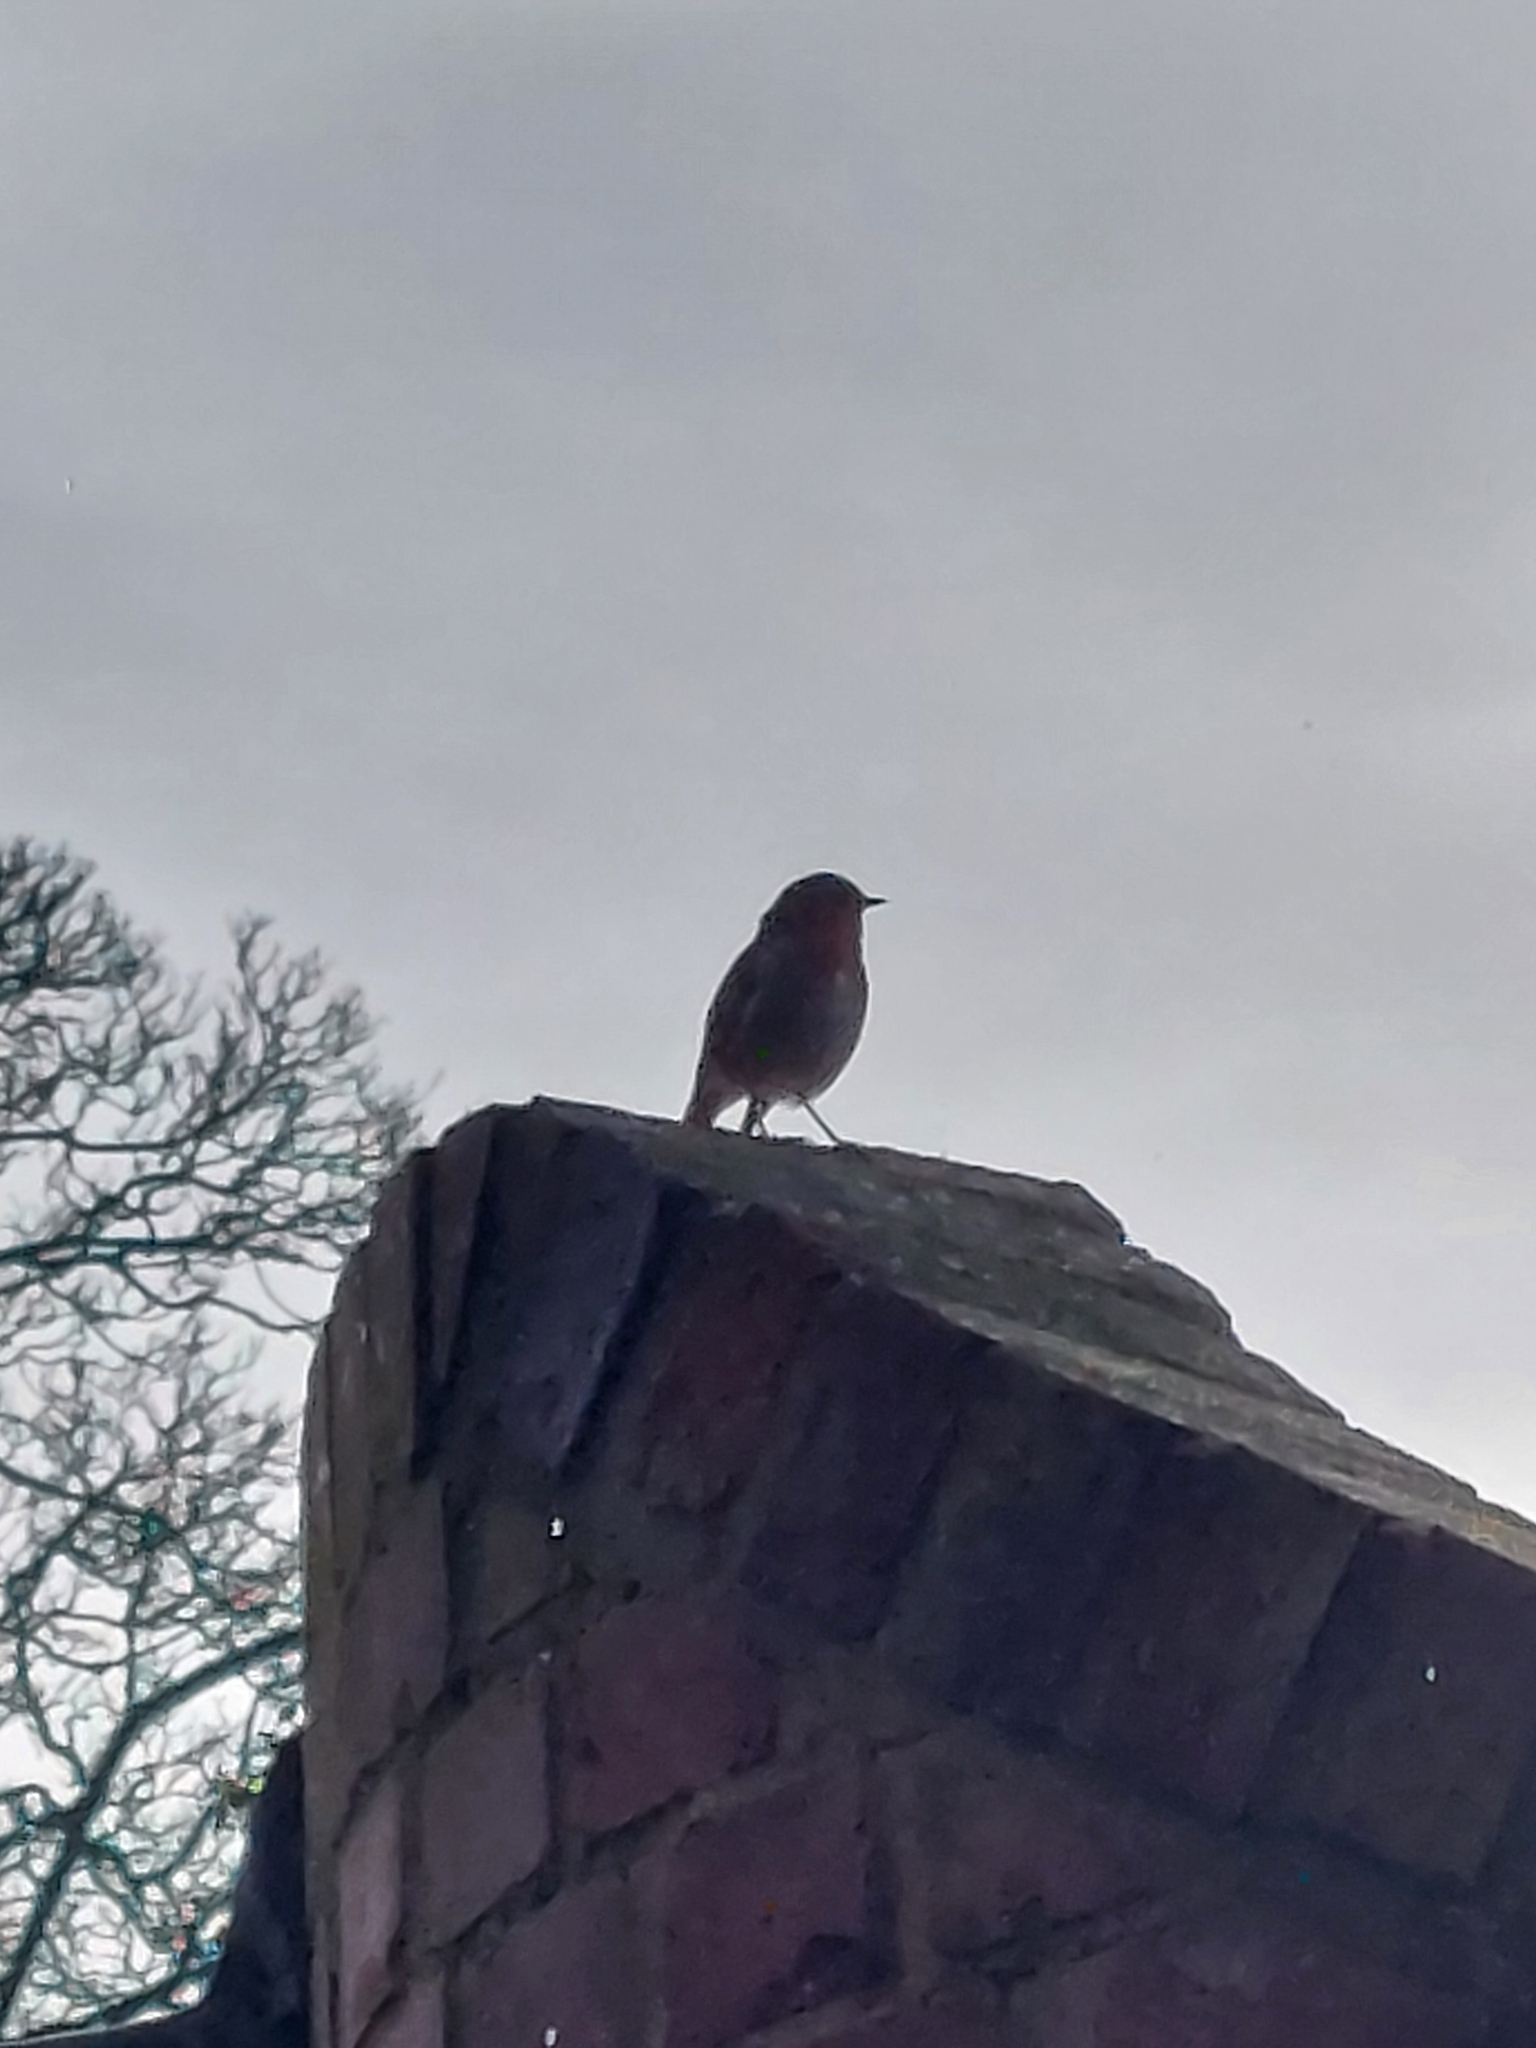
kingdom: Animalia
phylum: Chordata
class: Aves
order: Passeriformes
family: Muscicapidae
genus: Erithacus
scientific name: Erithacus rubecula
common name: European robin
